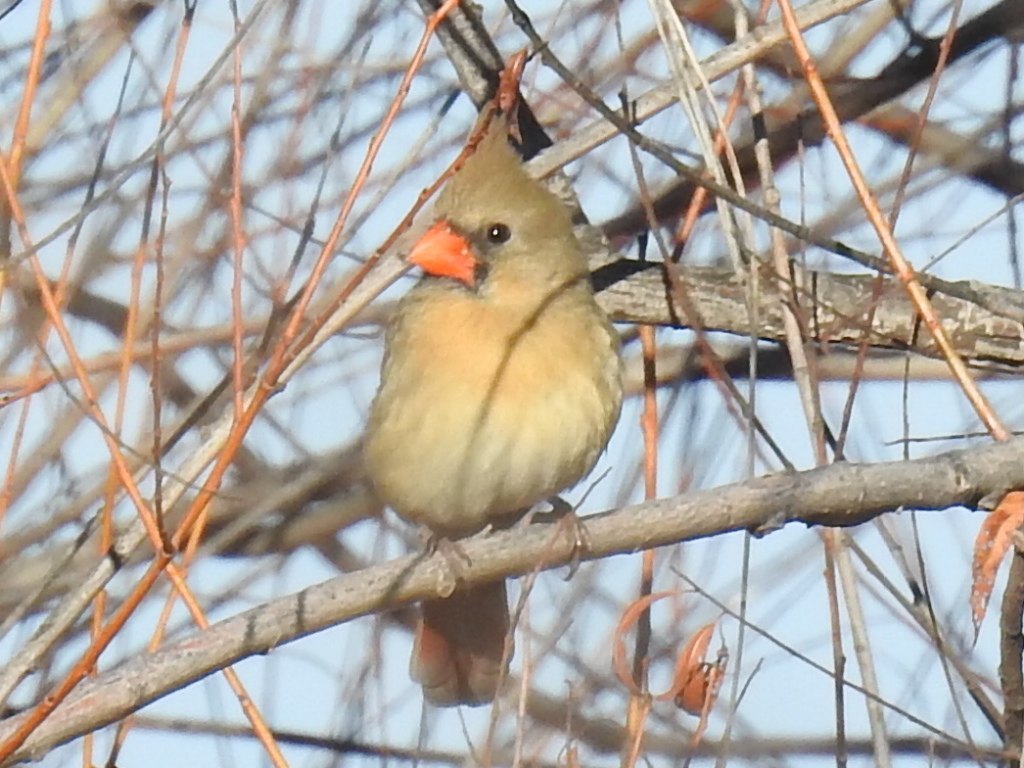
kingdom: Animalia
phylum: Chordata
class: Aves
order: Passeriformes
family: Cardinalidae
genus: Cardinalis
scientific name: Cardinalis cardinalis
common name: Northern cardinal
